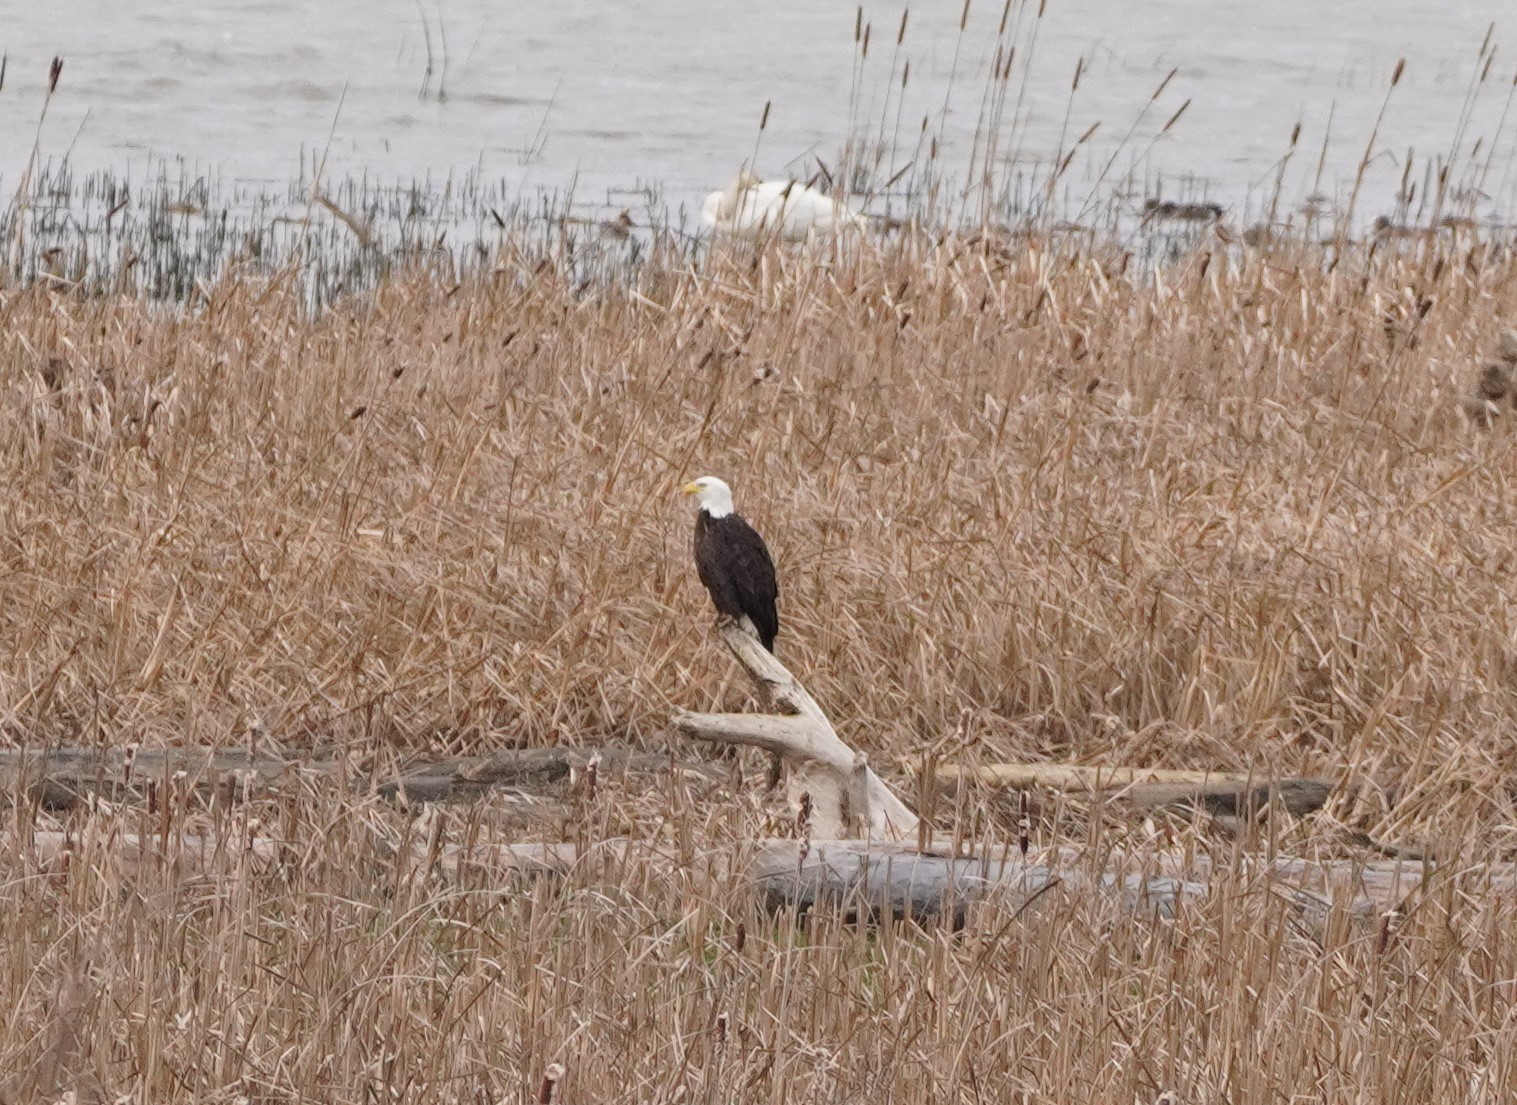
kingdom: Animalia
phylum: Chordata
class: Aves
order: Accipitriformes
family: Accipitridae
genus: Haliaeetus
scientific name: Haliaeetus leucocephalus
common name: Bald eagle
